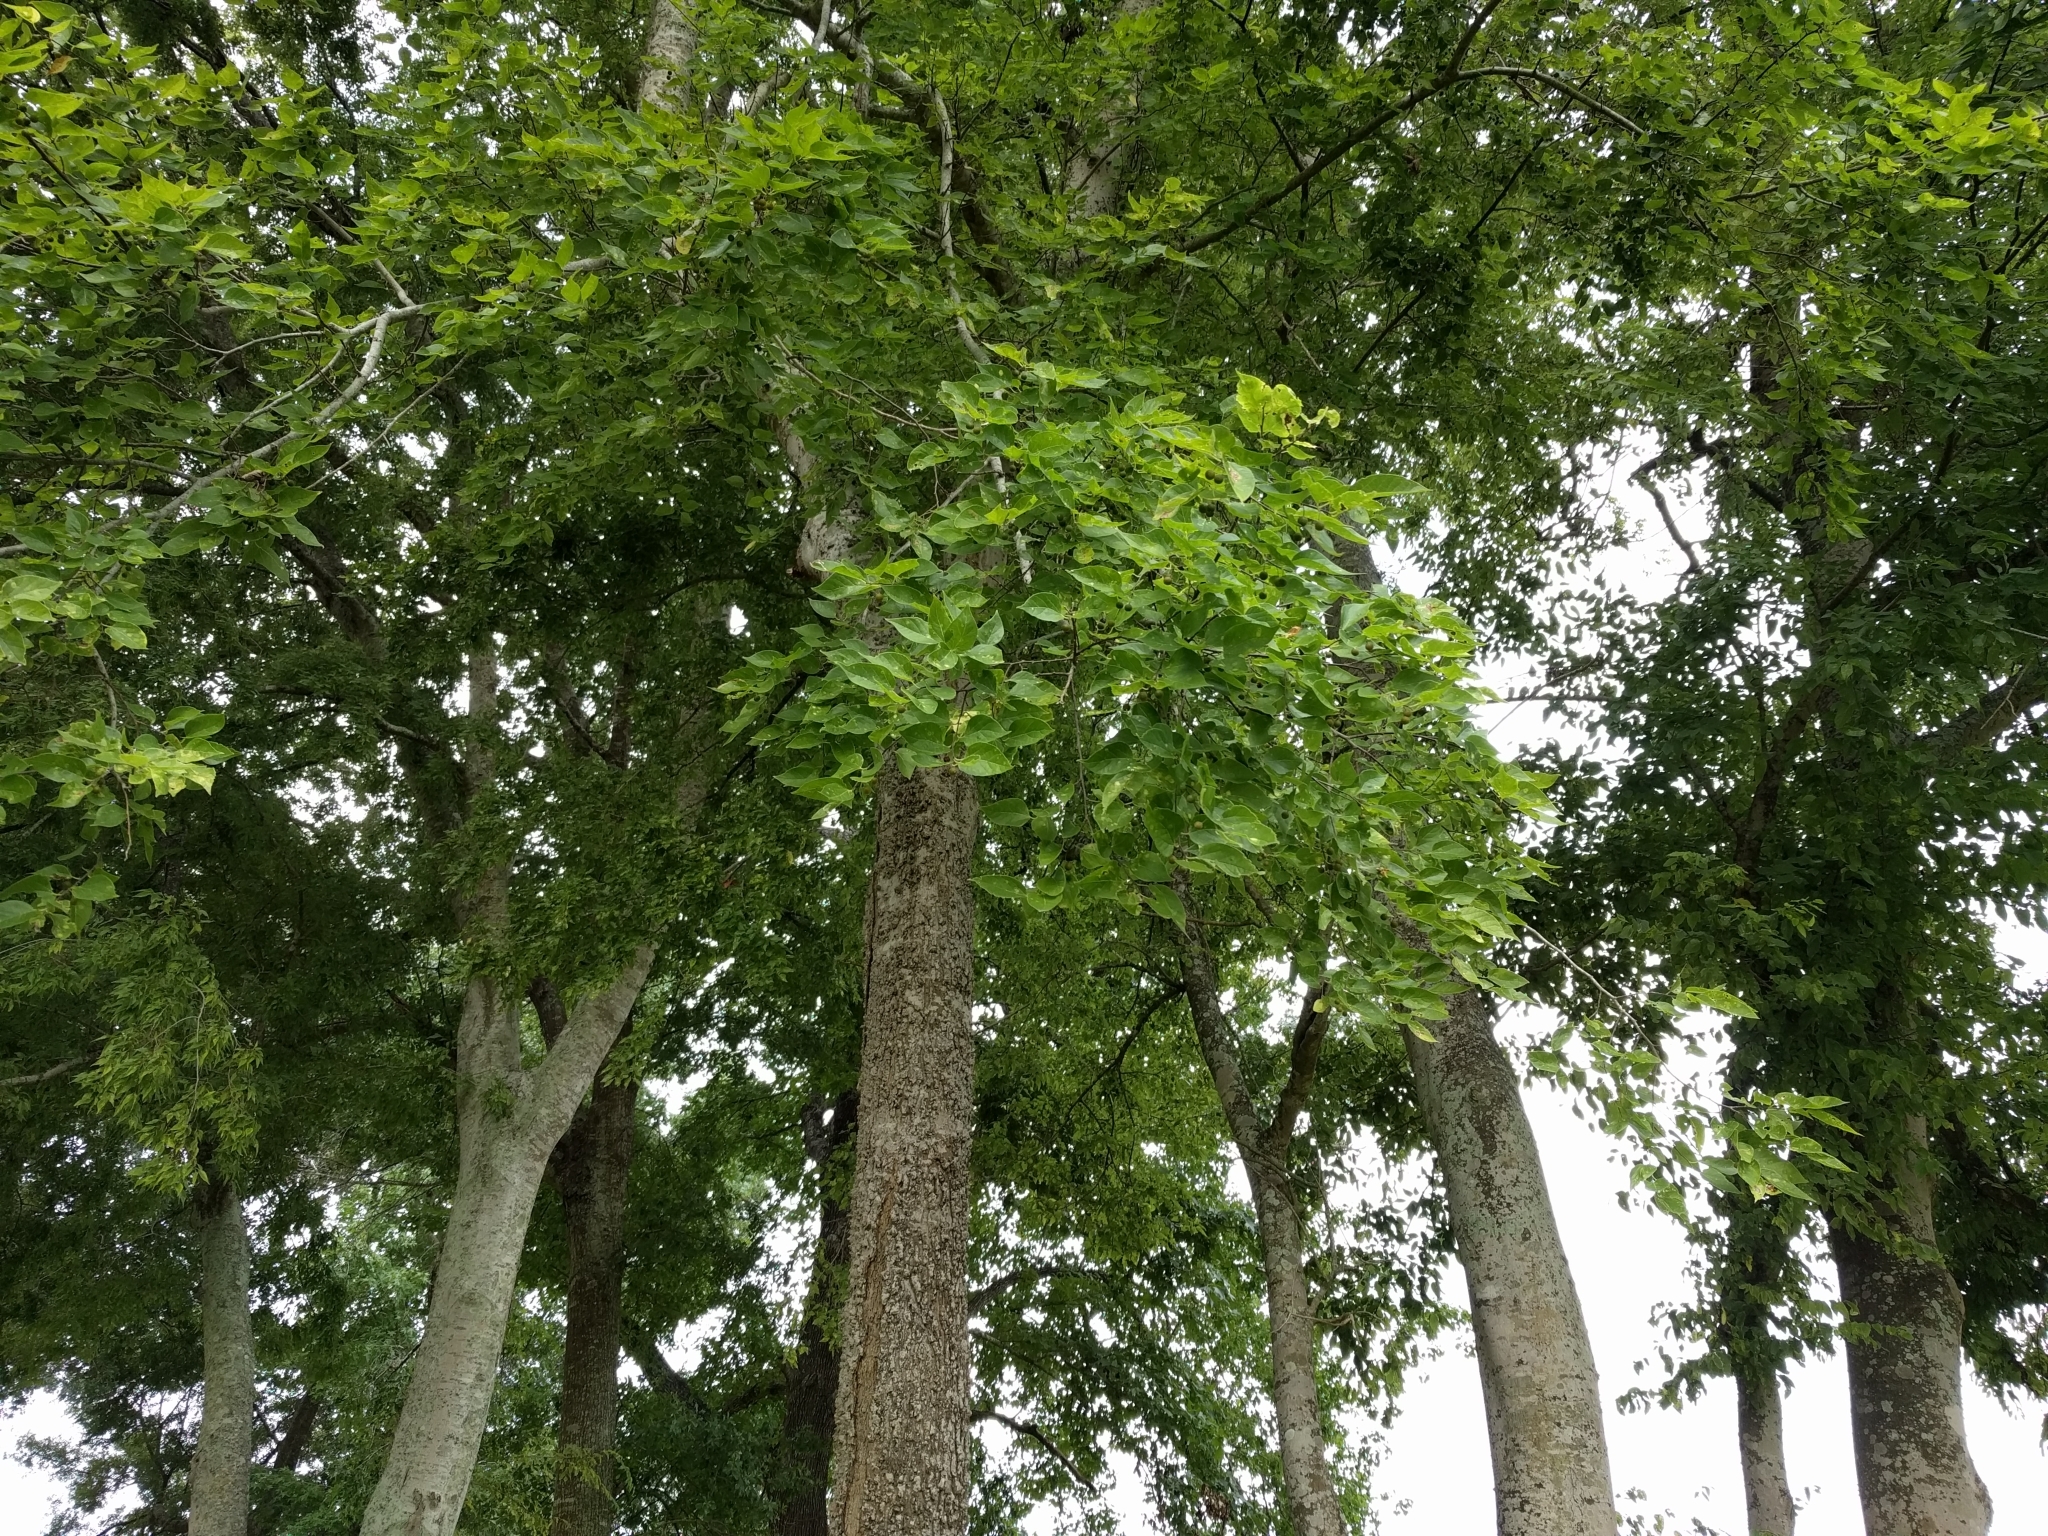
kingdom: Plantae
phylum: Tracheophyta
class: Magnoliopsida
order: Rosales
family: Cannabaceae
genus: Celtis
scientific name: Celtis laevigata
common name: Sugarberry
